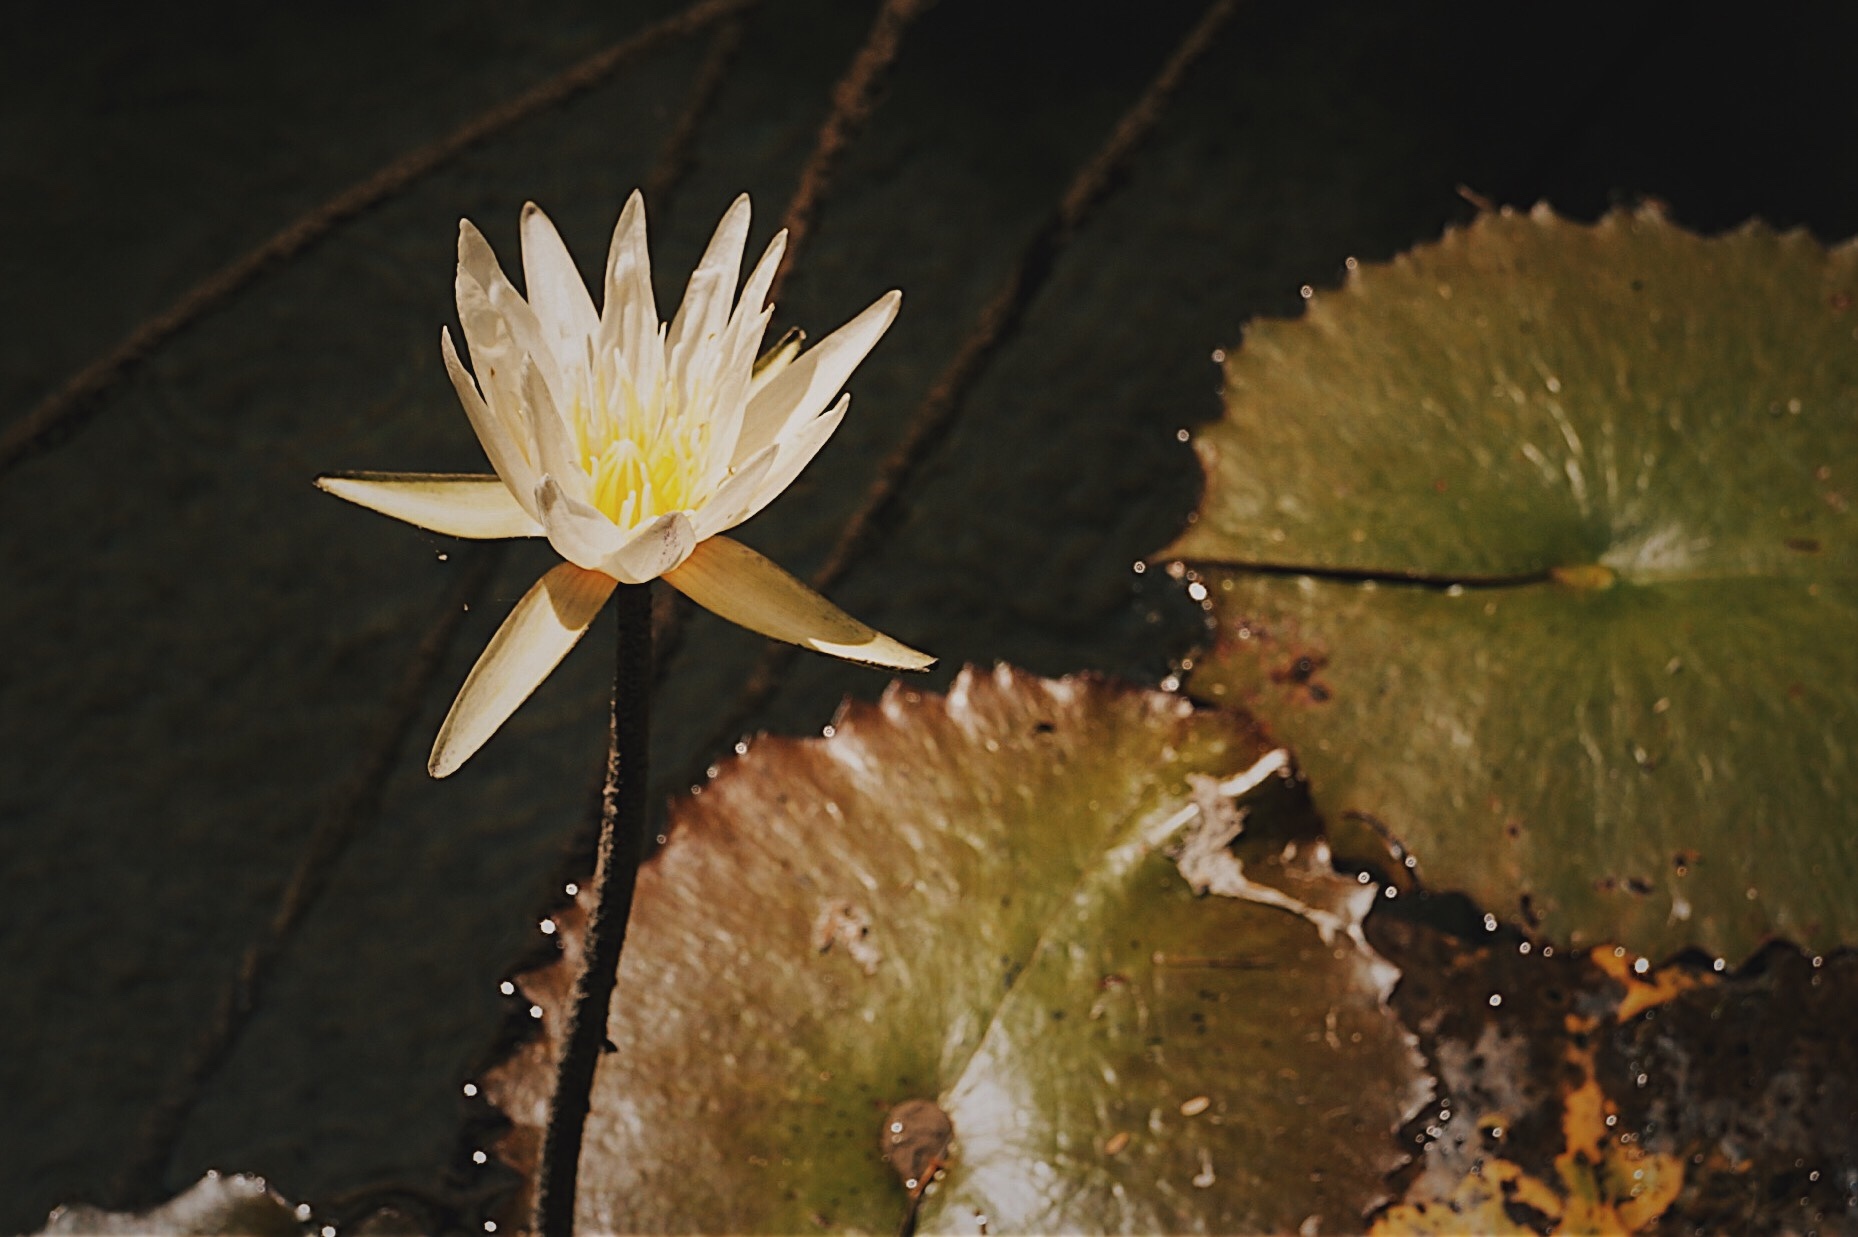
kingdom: Plantae
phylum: Tracheophyta
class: Magnoliopsida
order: Nymphaeales
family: Nymphaeaceae
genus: Nymphaea
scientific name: Nymphaea ampla
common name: Dotleaf waterlily
